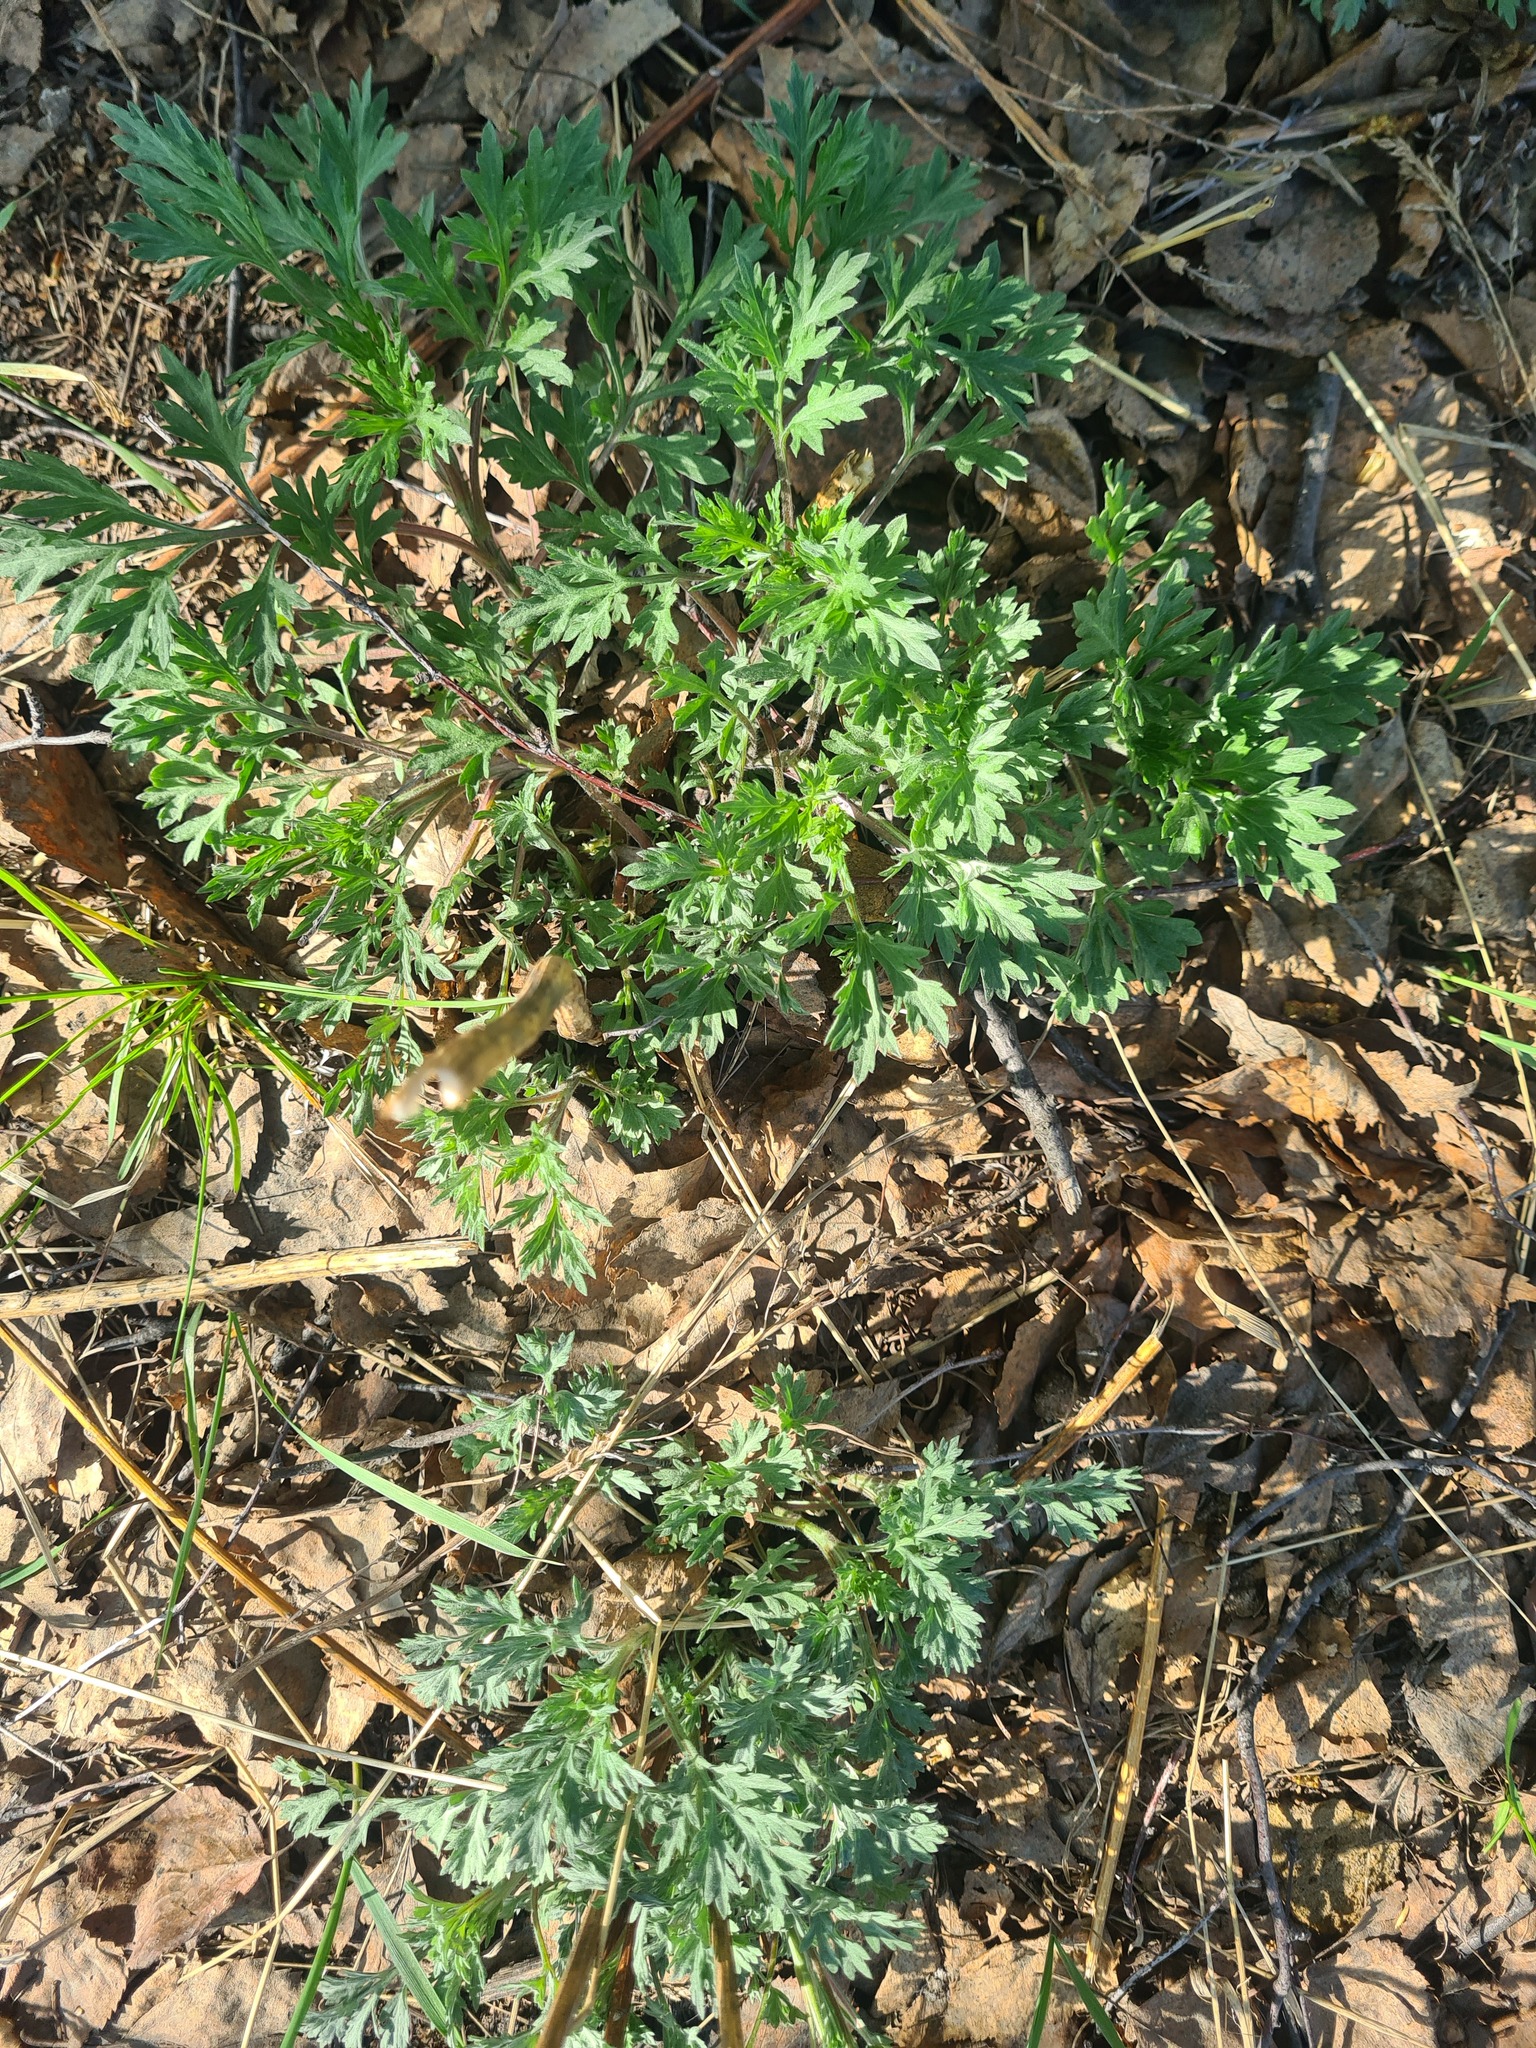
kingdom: Plantae
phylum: Tracheophyta
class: Magnoliopsida
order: Asterales
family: Asteraceae
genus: Artemisia
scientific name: Artemisia vulgaris
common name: Mugwort
